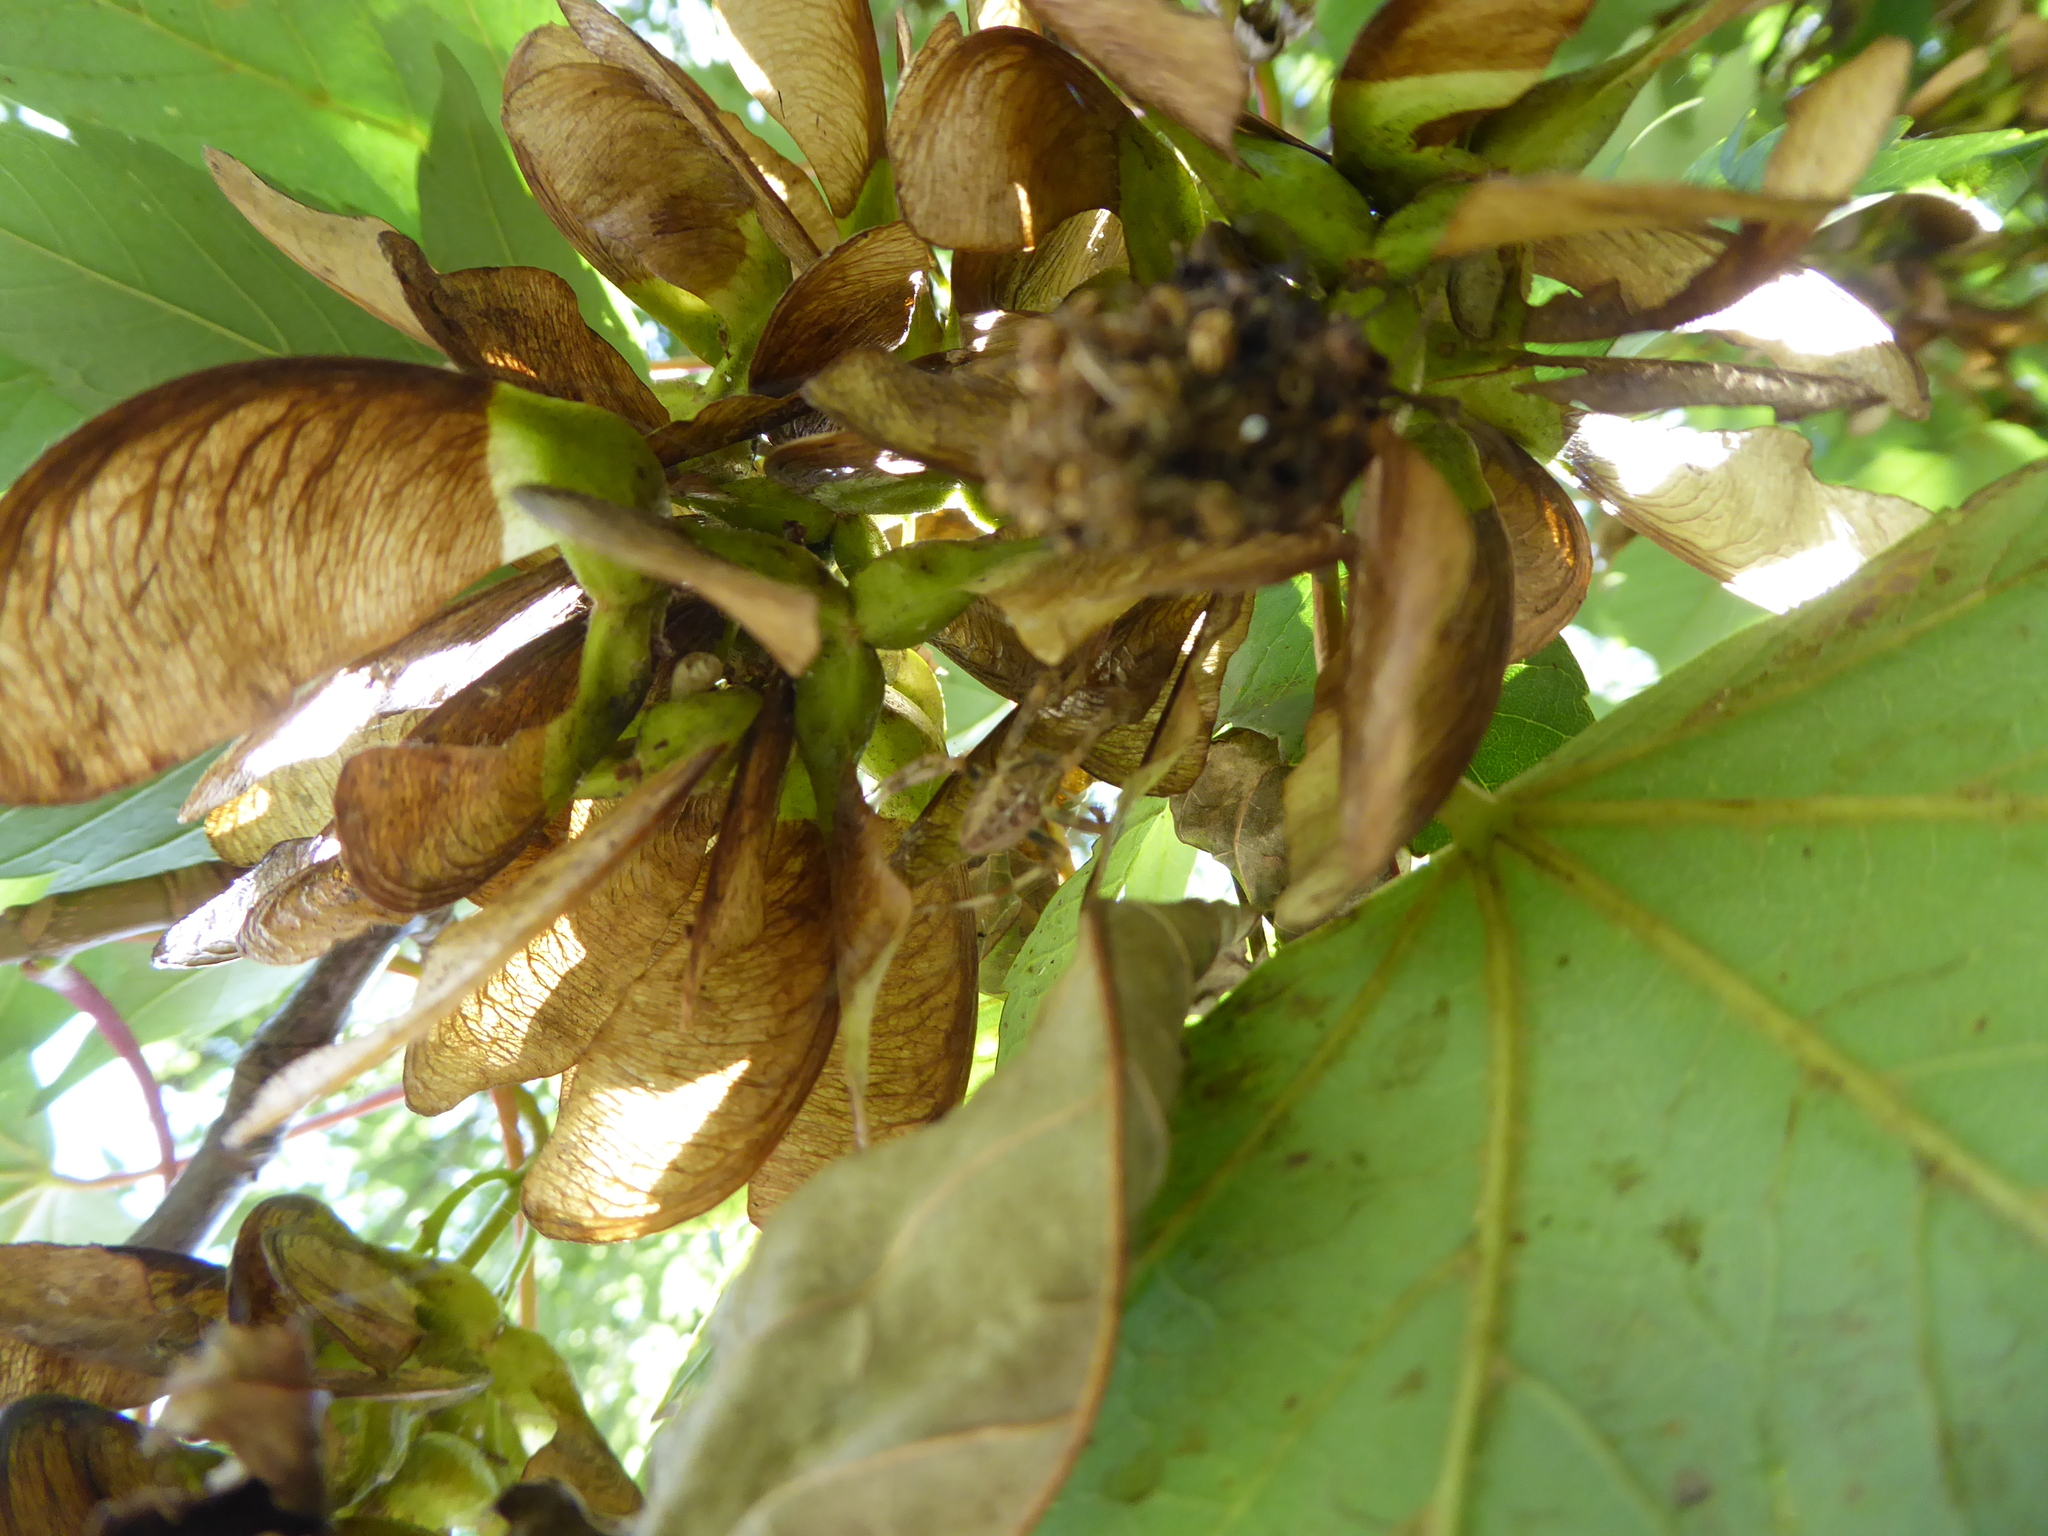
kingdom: Animalia
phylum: Arthropoda
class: Arachnida
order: Araneae
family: Araneidae
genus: Araneus
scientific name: Araneus diadematus
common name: Cross orbweaver
